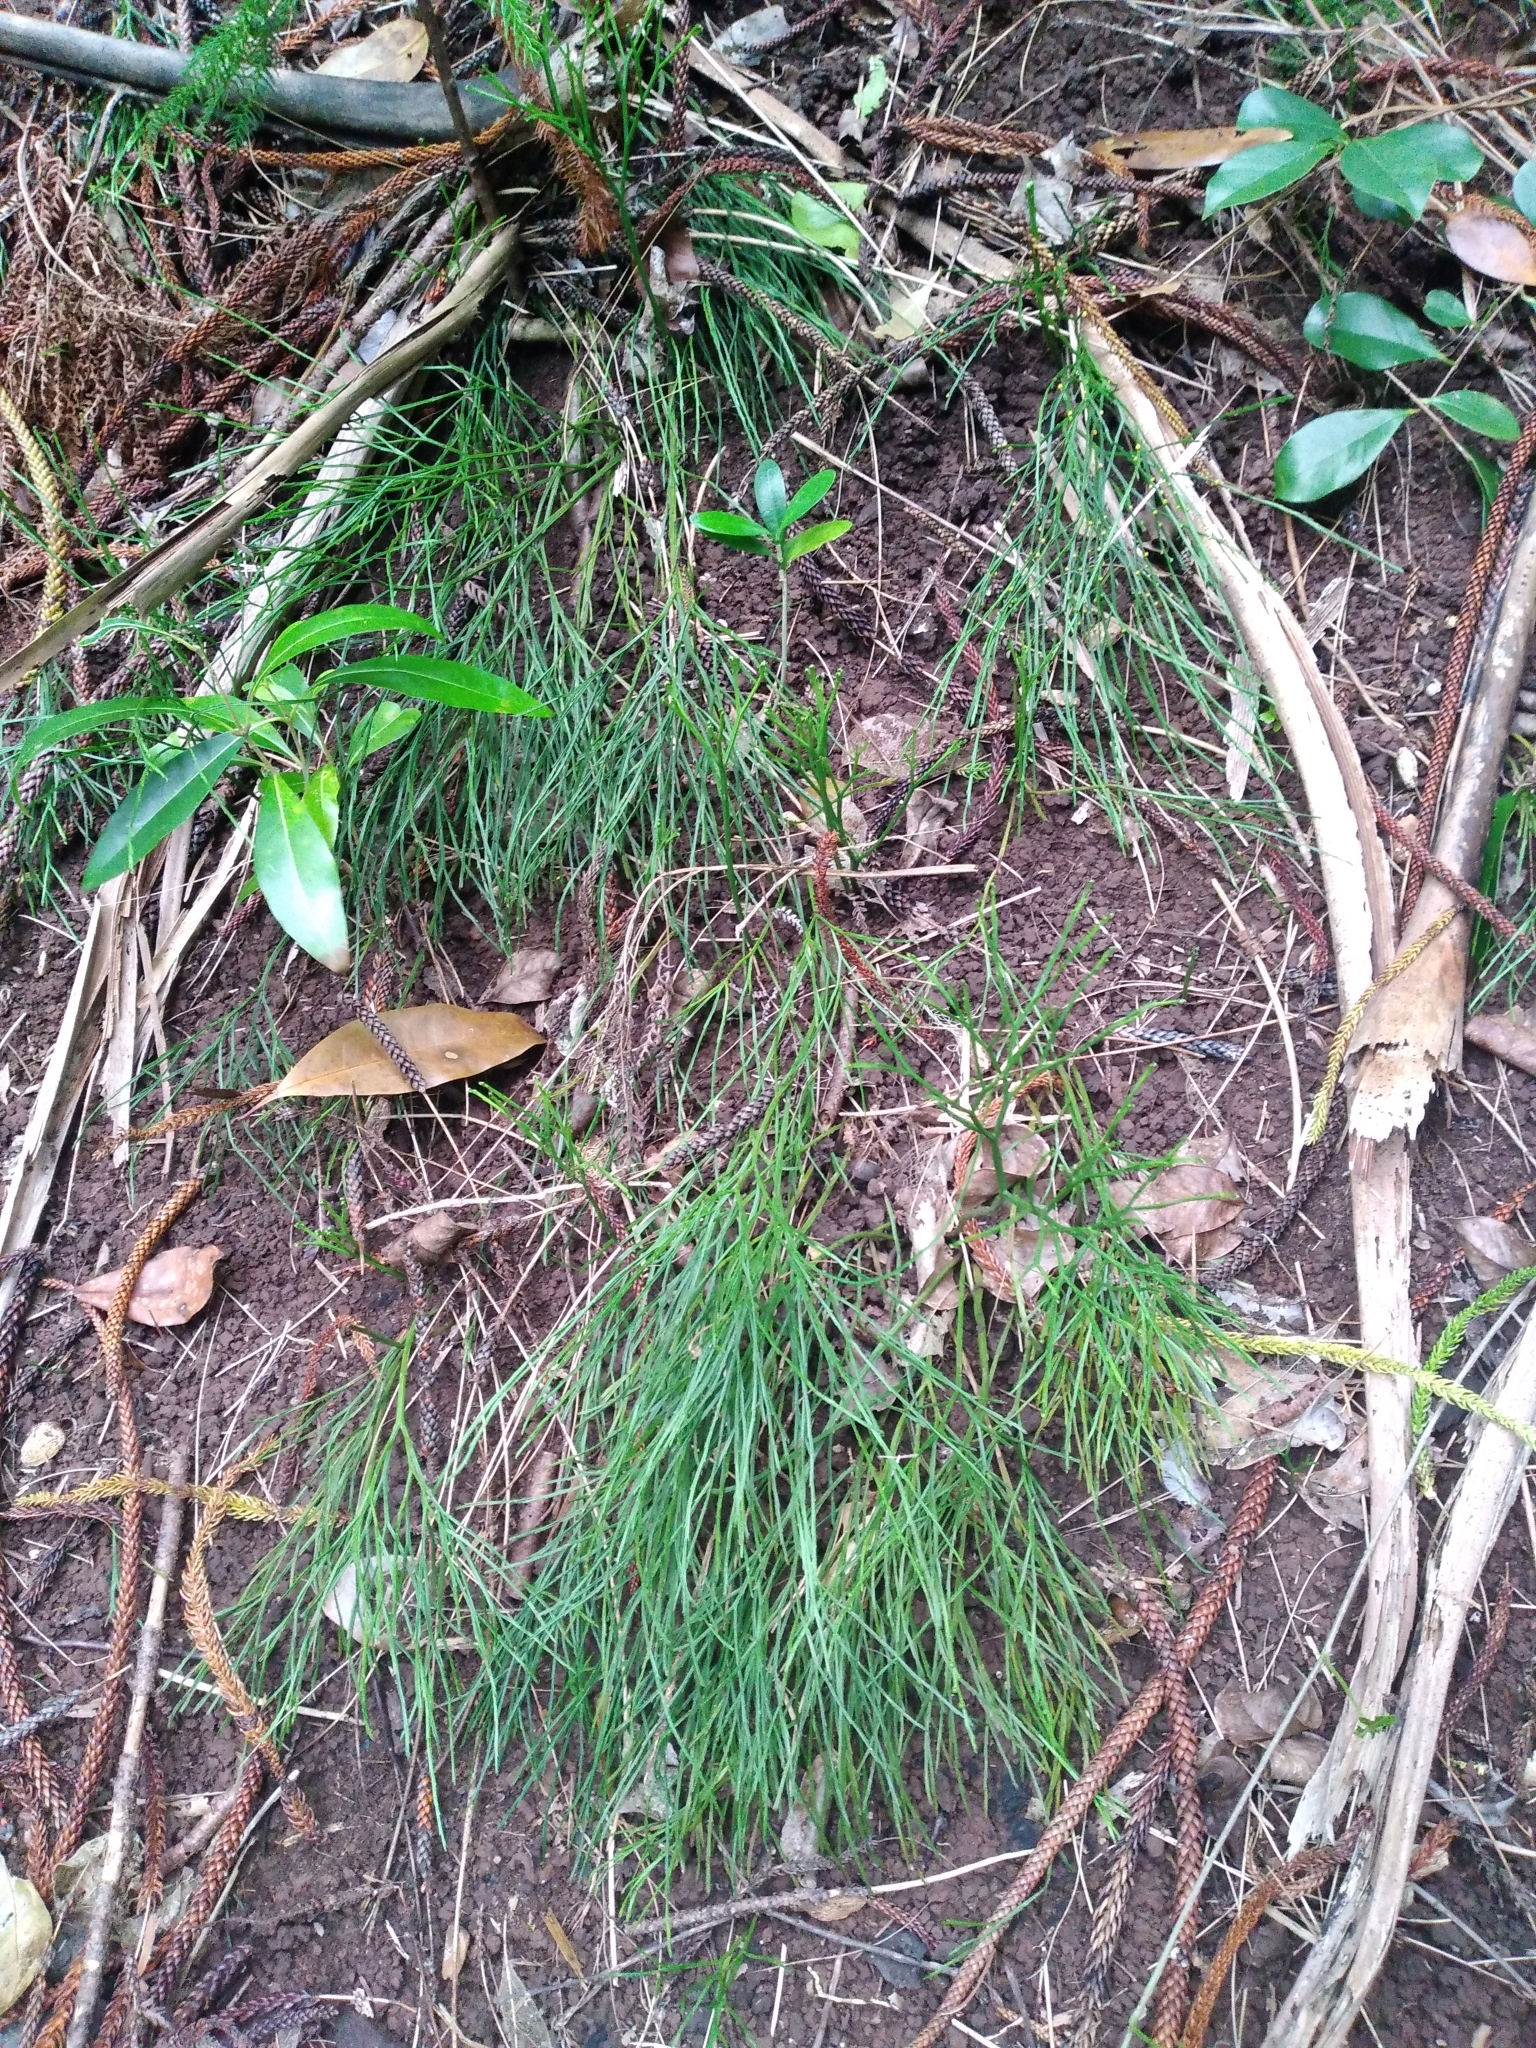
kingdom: Plantae
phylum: Tracheophyta
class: Polypodiopsida
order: Psilotales
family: Psilotaceae
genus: Psilotum
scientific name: Psilotum nudum
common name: Skeleton fork fern
